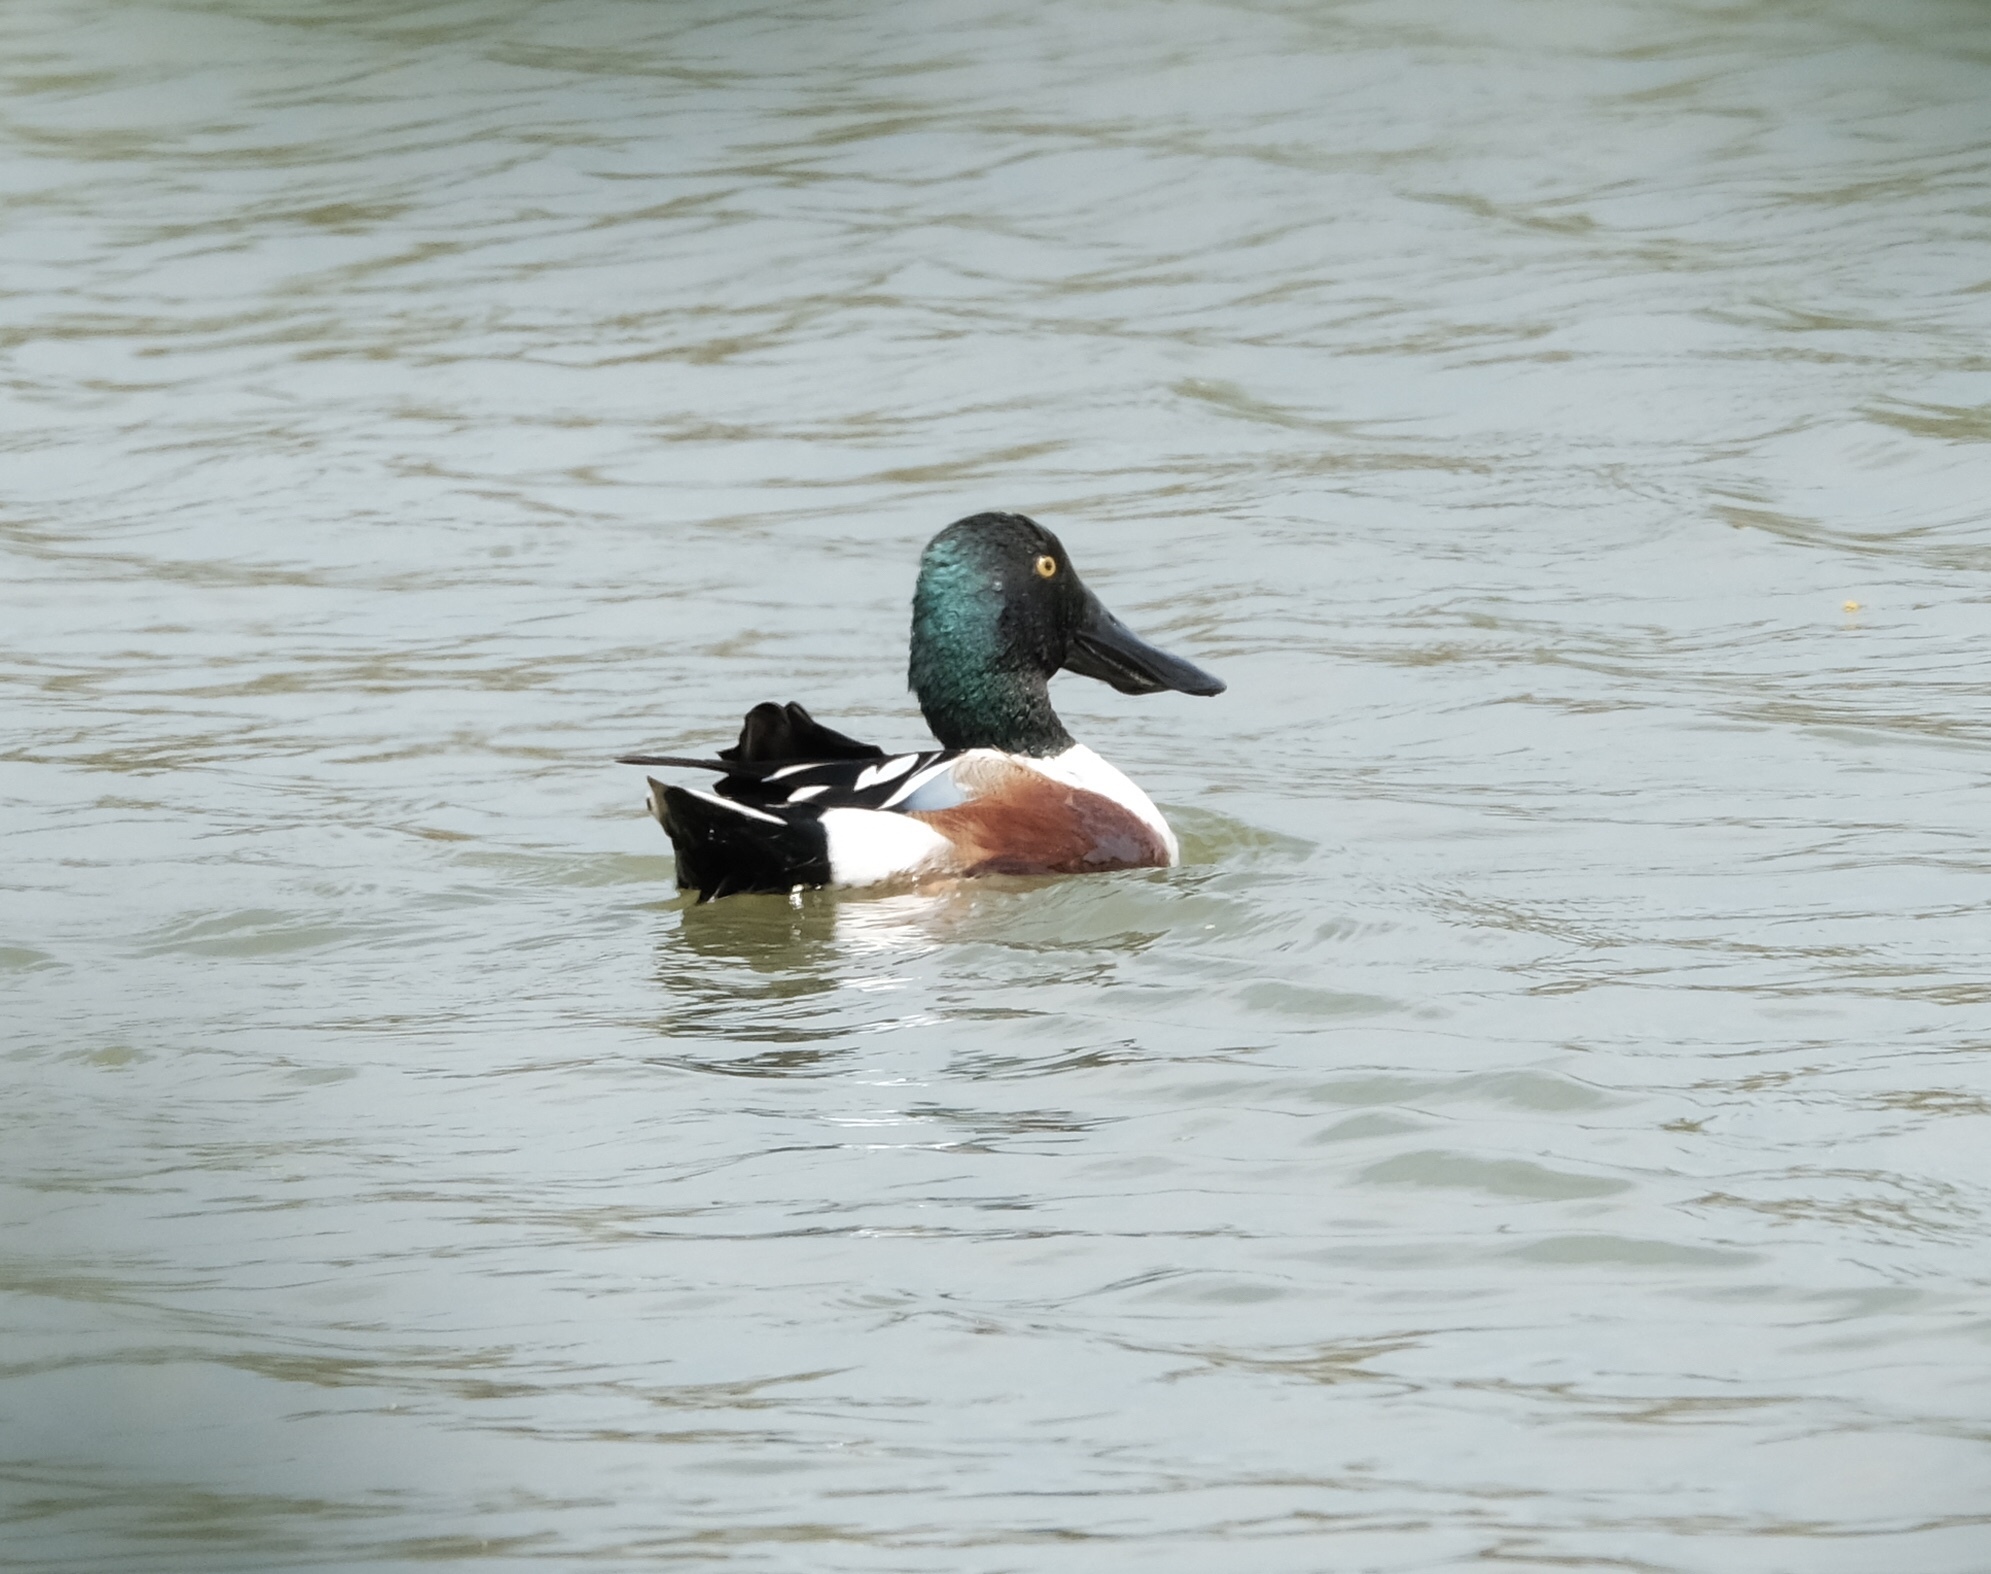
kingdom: Animalia
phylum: Chordata
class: Aves
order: Anseriformes
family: Anatidae
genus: Spatula
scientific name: Spatula clypeata
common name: Northern shoveler
